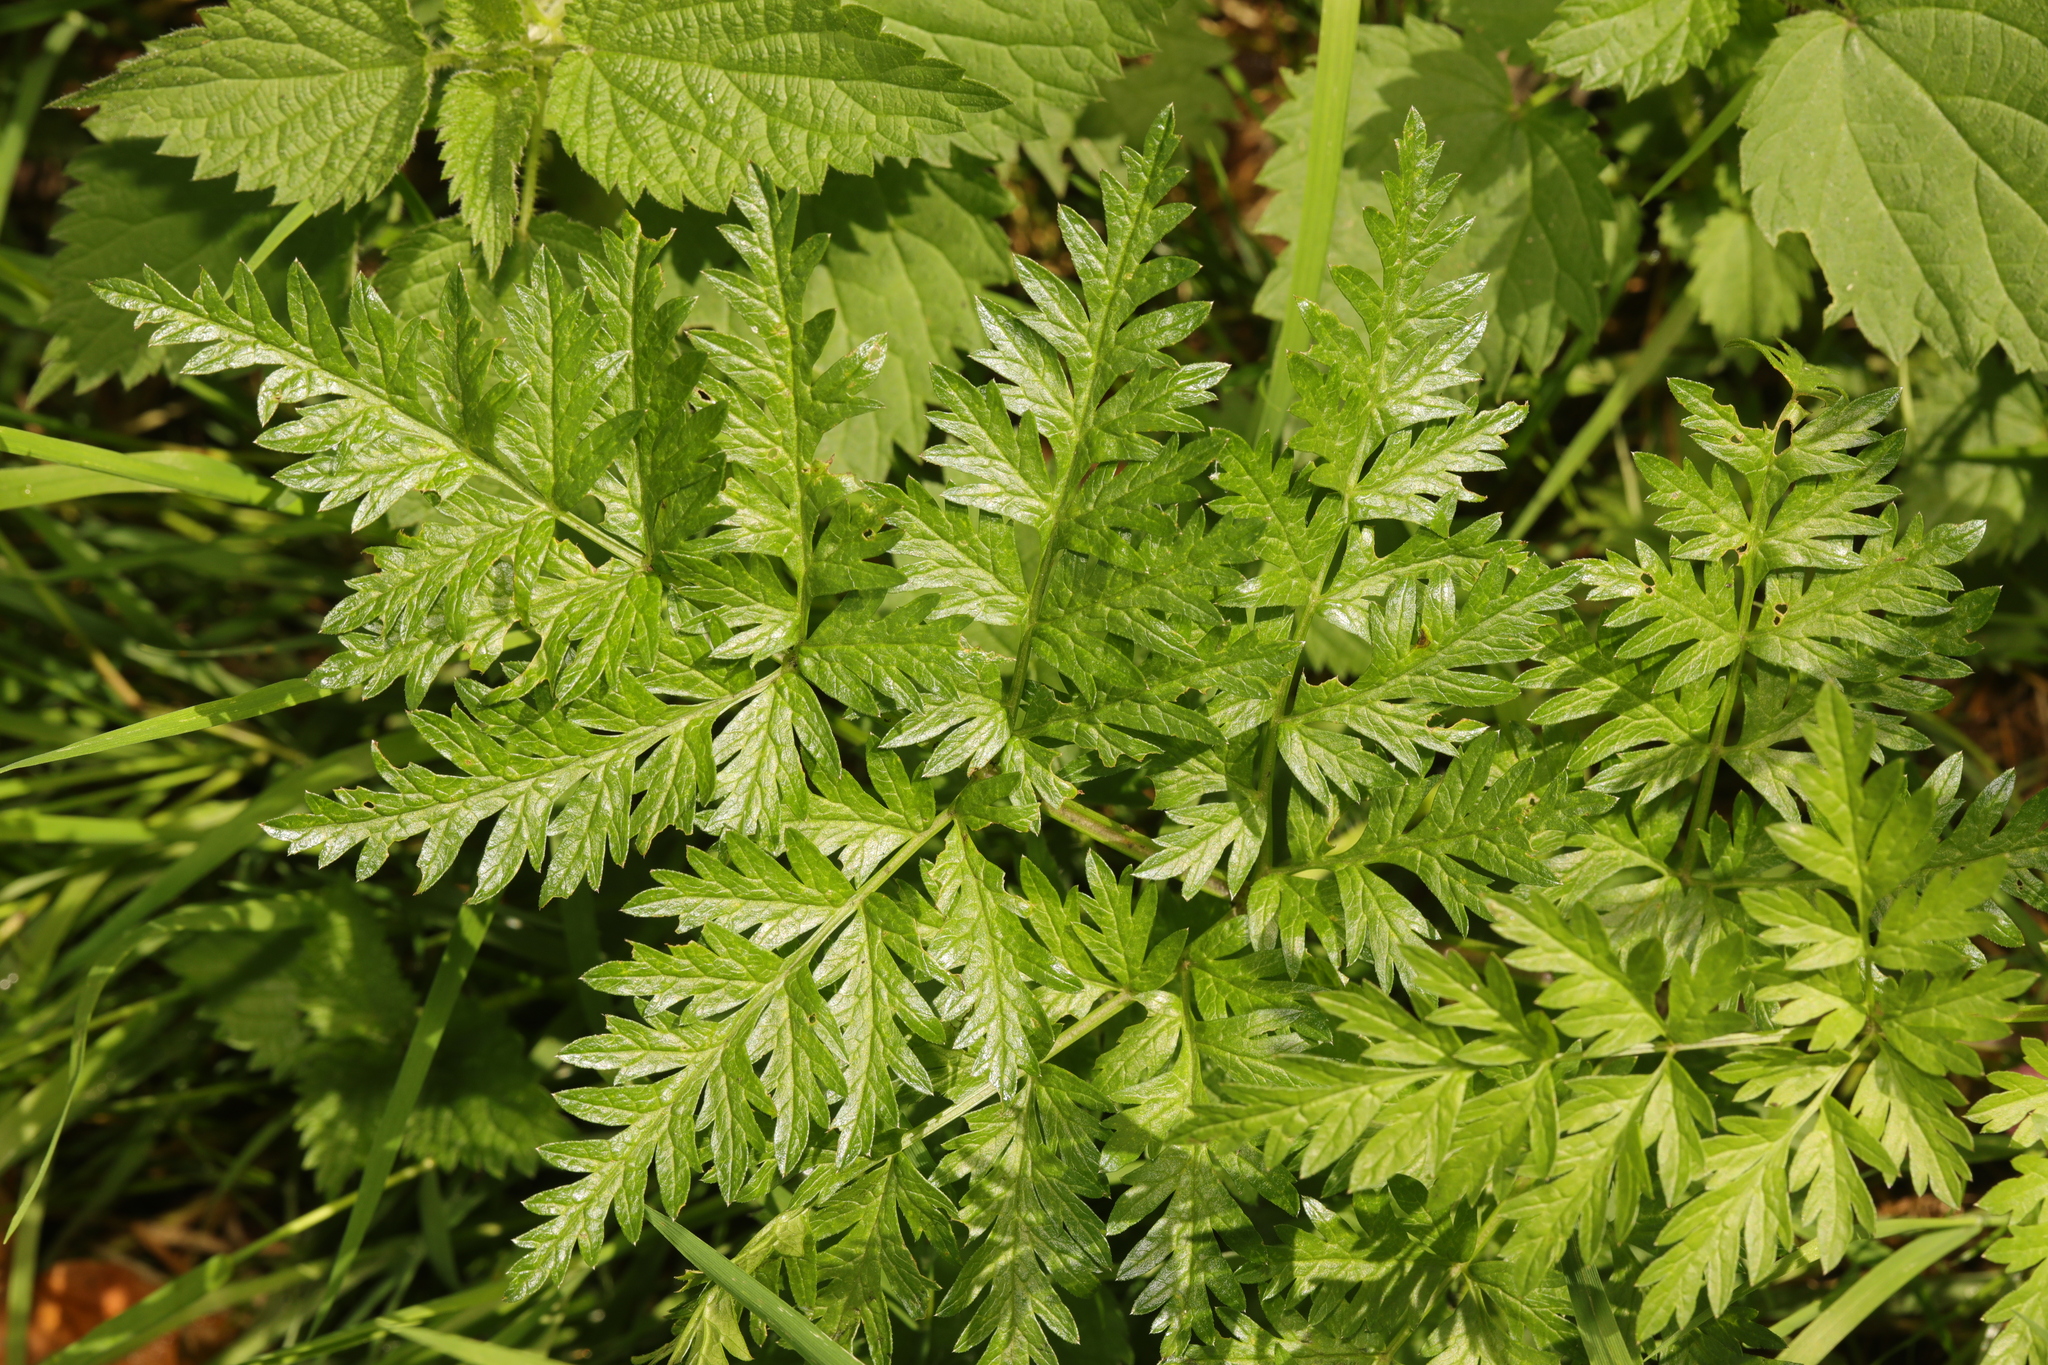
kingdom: Plantae
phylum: Tracheophyta
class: Magnoliopsida
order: Apiales
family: Apiaceae
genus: Anthriscus
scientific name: Anthriscus sylvestris
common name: Cow parsley
